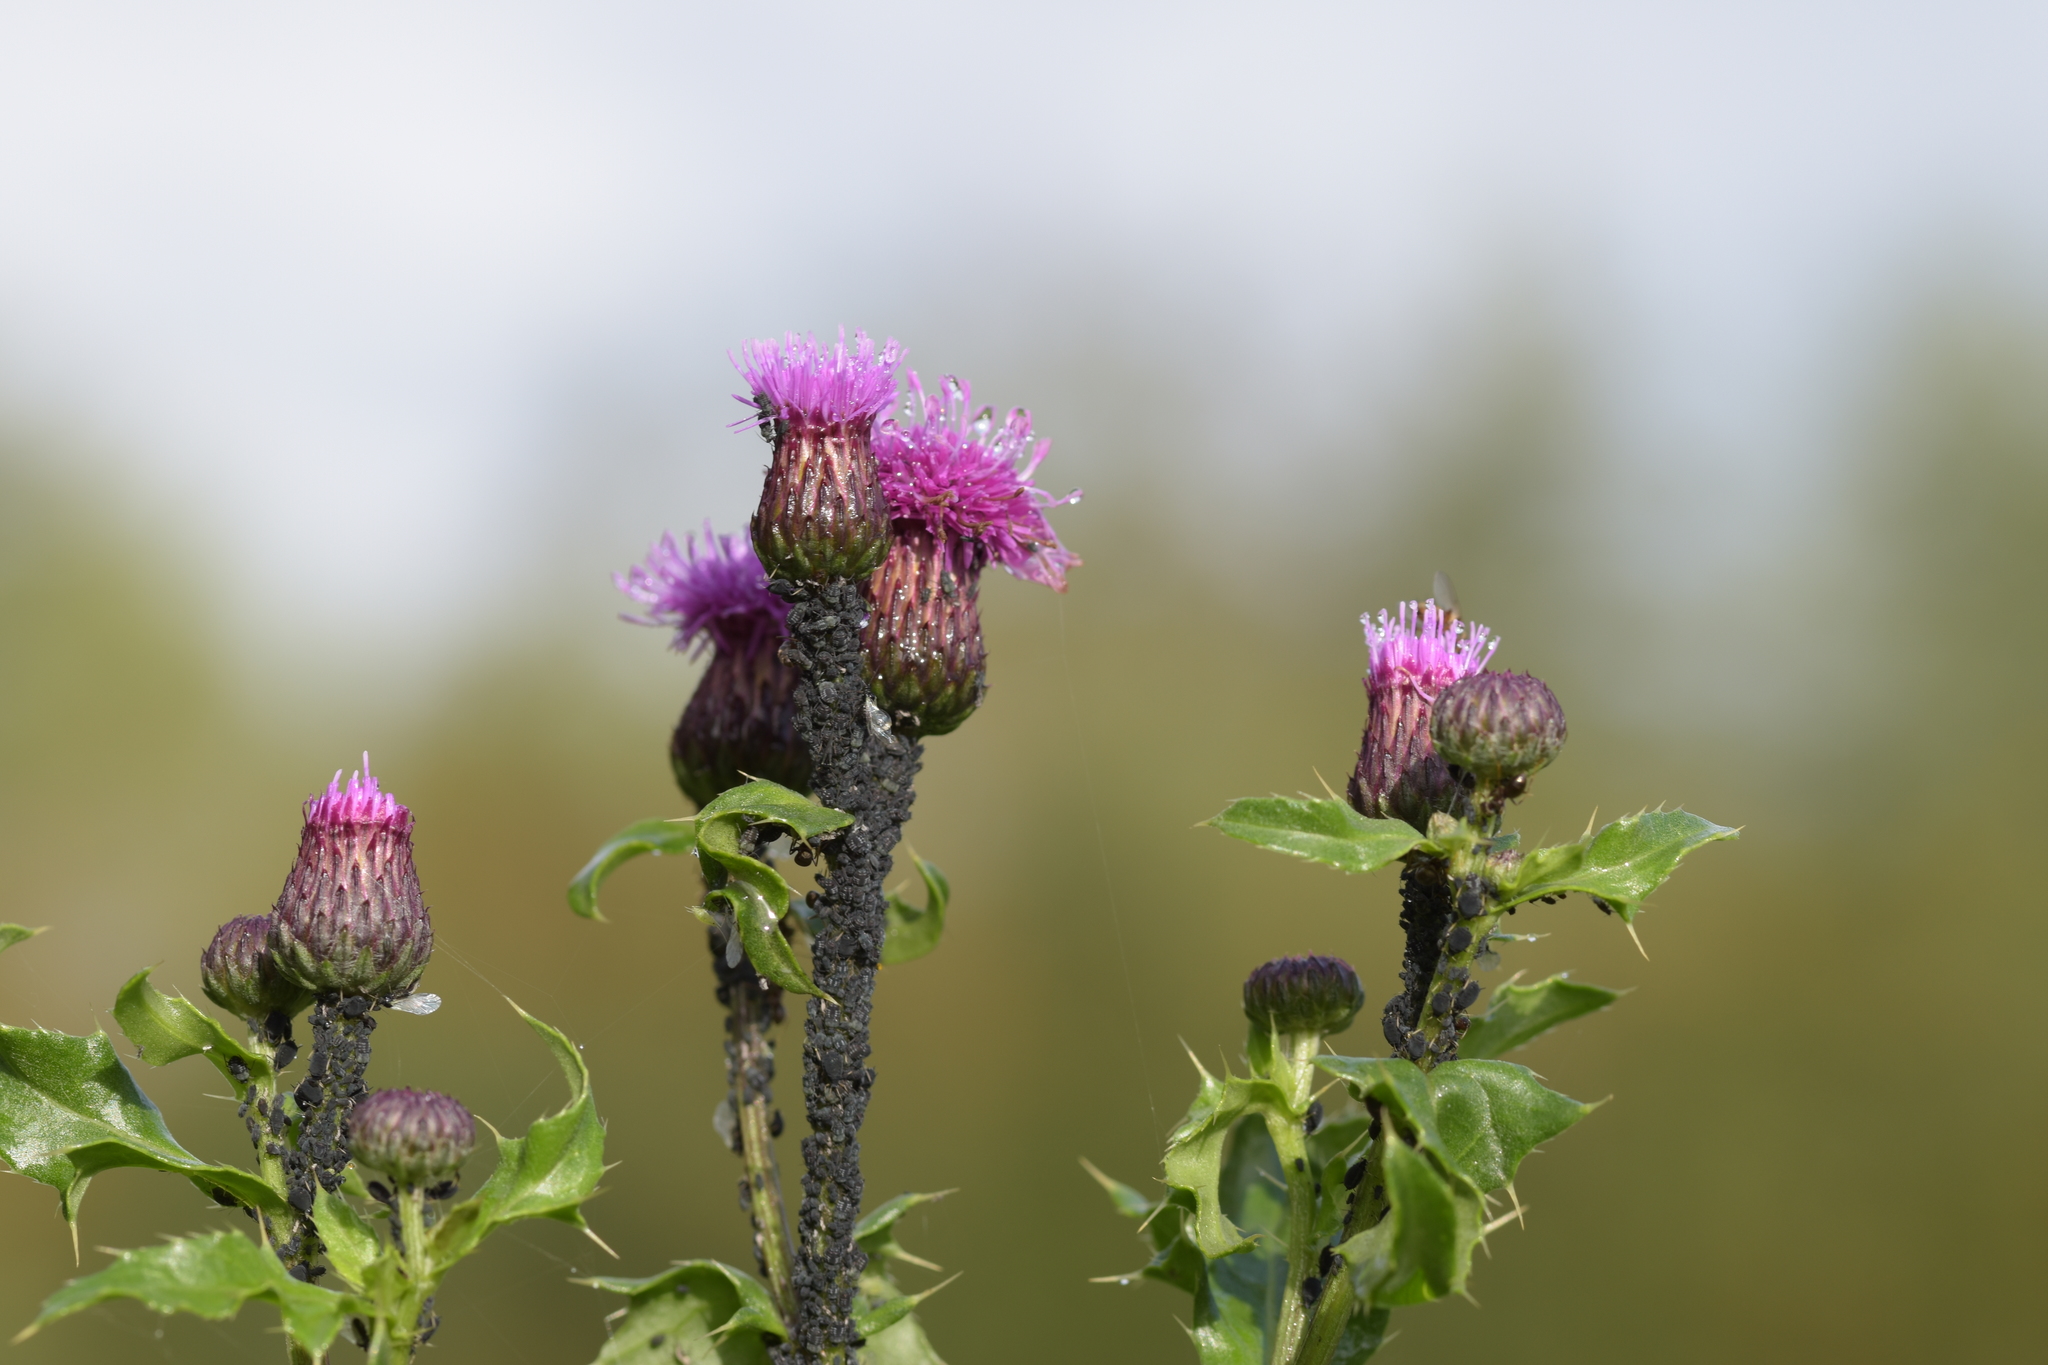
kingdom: Plantae
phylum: Tracheophyta
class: Magnoliopsida
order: Asterales
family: Asteraceae
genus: Cirsium
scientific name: Cirsium arvense
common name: Creeping thistle
